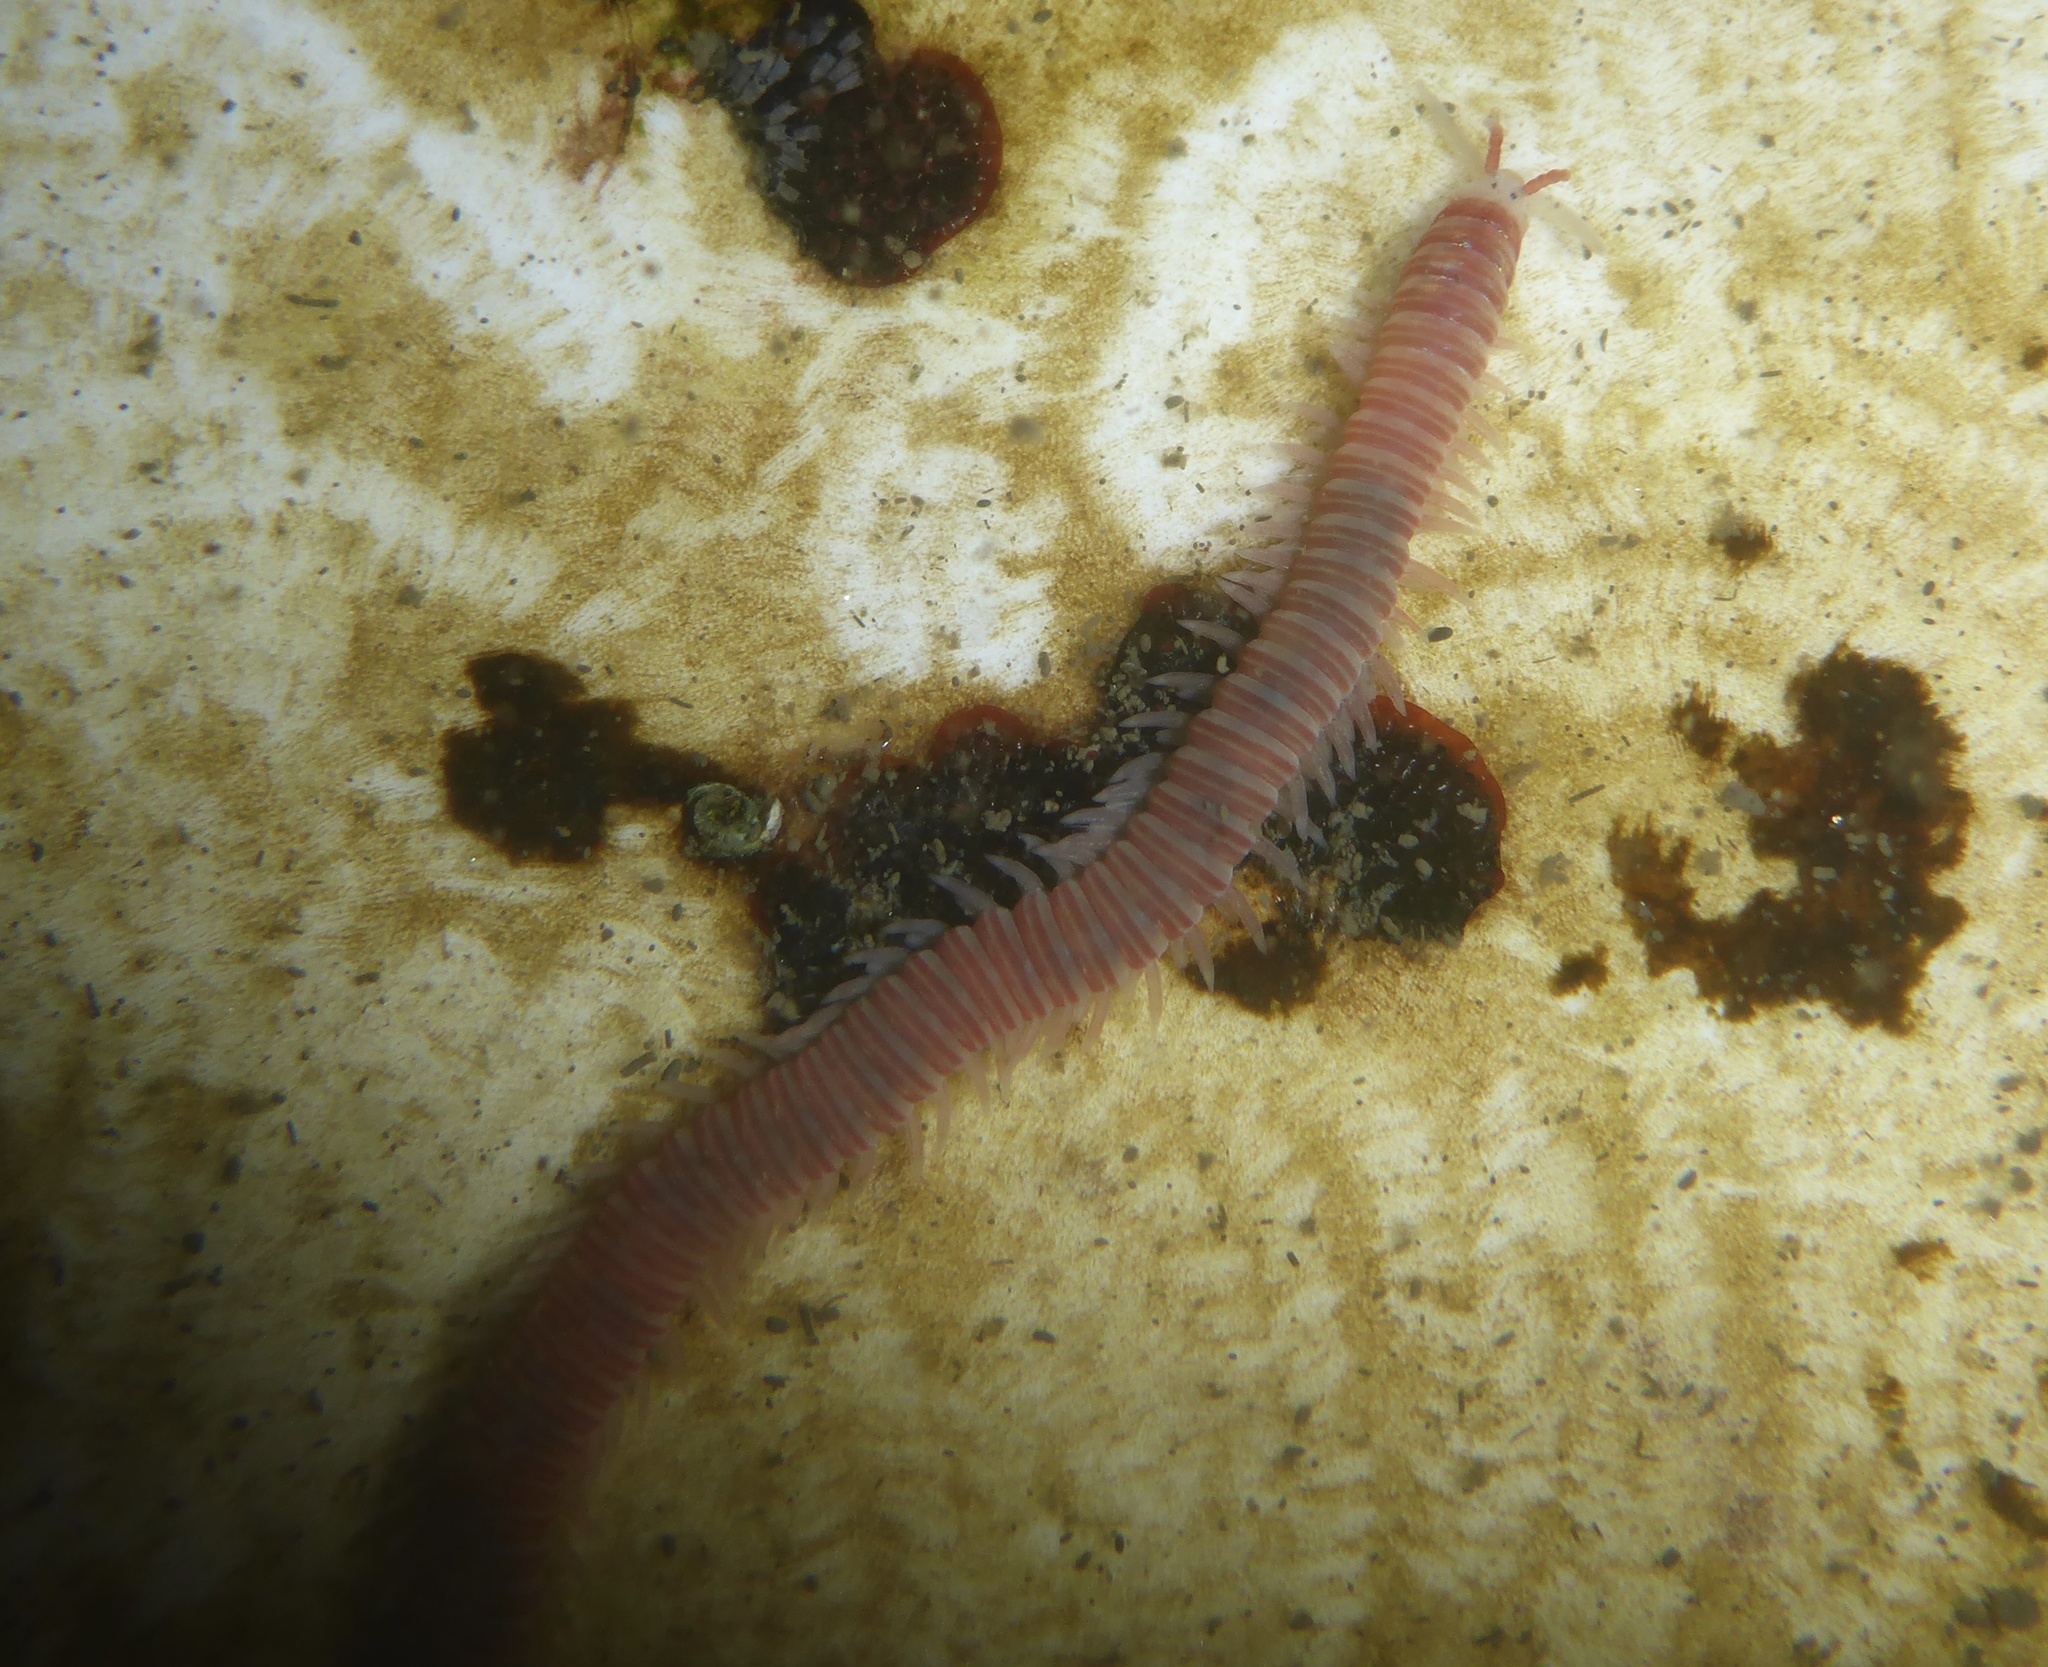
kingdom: Animalia
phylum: Annelida
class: Polychaeta
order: Eunicida
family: Dorvilleidae
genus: Dorvillea
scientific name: Dorvillea moniloceras
